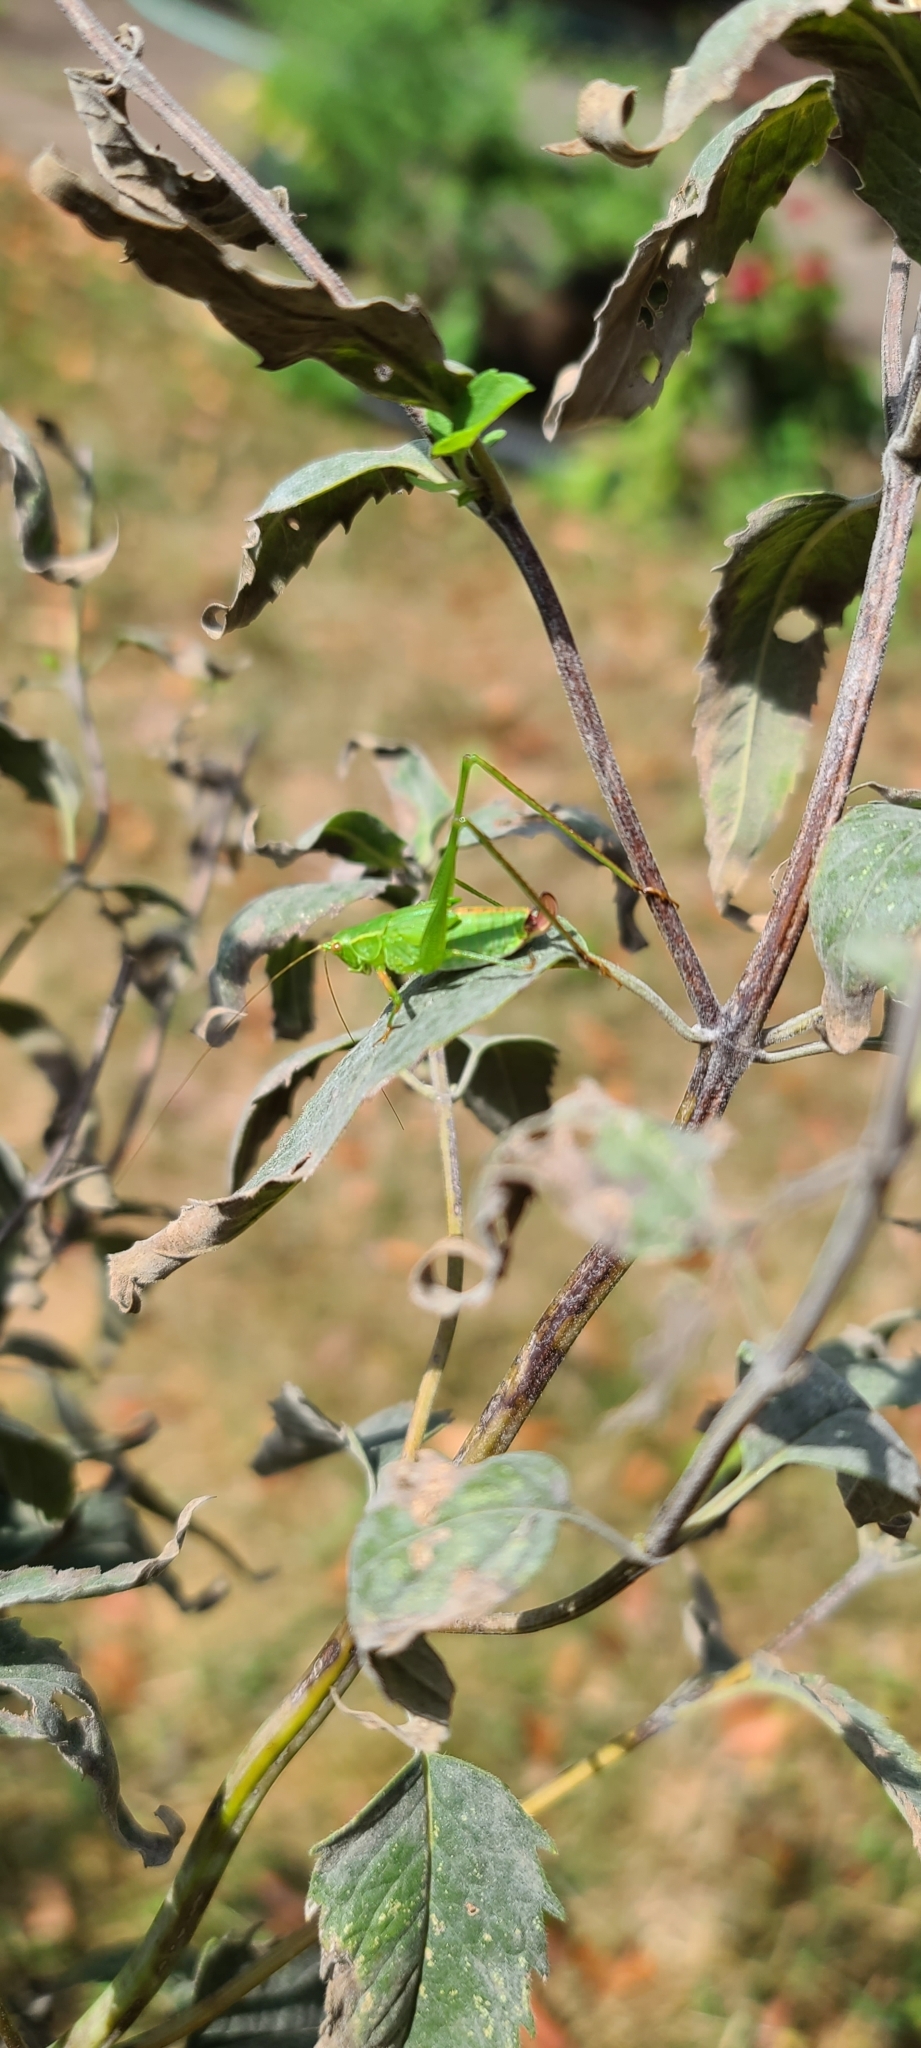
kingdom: Animalia
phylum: Arthropoda
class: Insecta
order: Orthoptera
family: Tettigoniidae
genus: Scudderia
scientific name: Scudderia furcata
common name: Fork-tailed bush katydid
